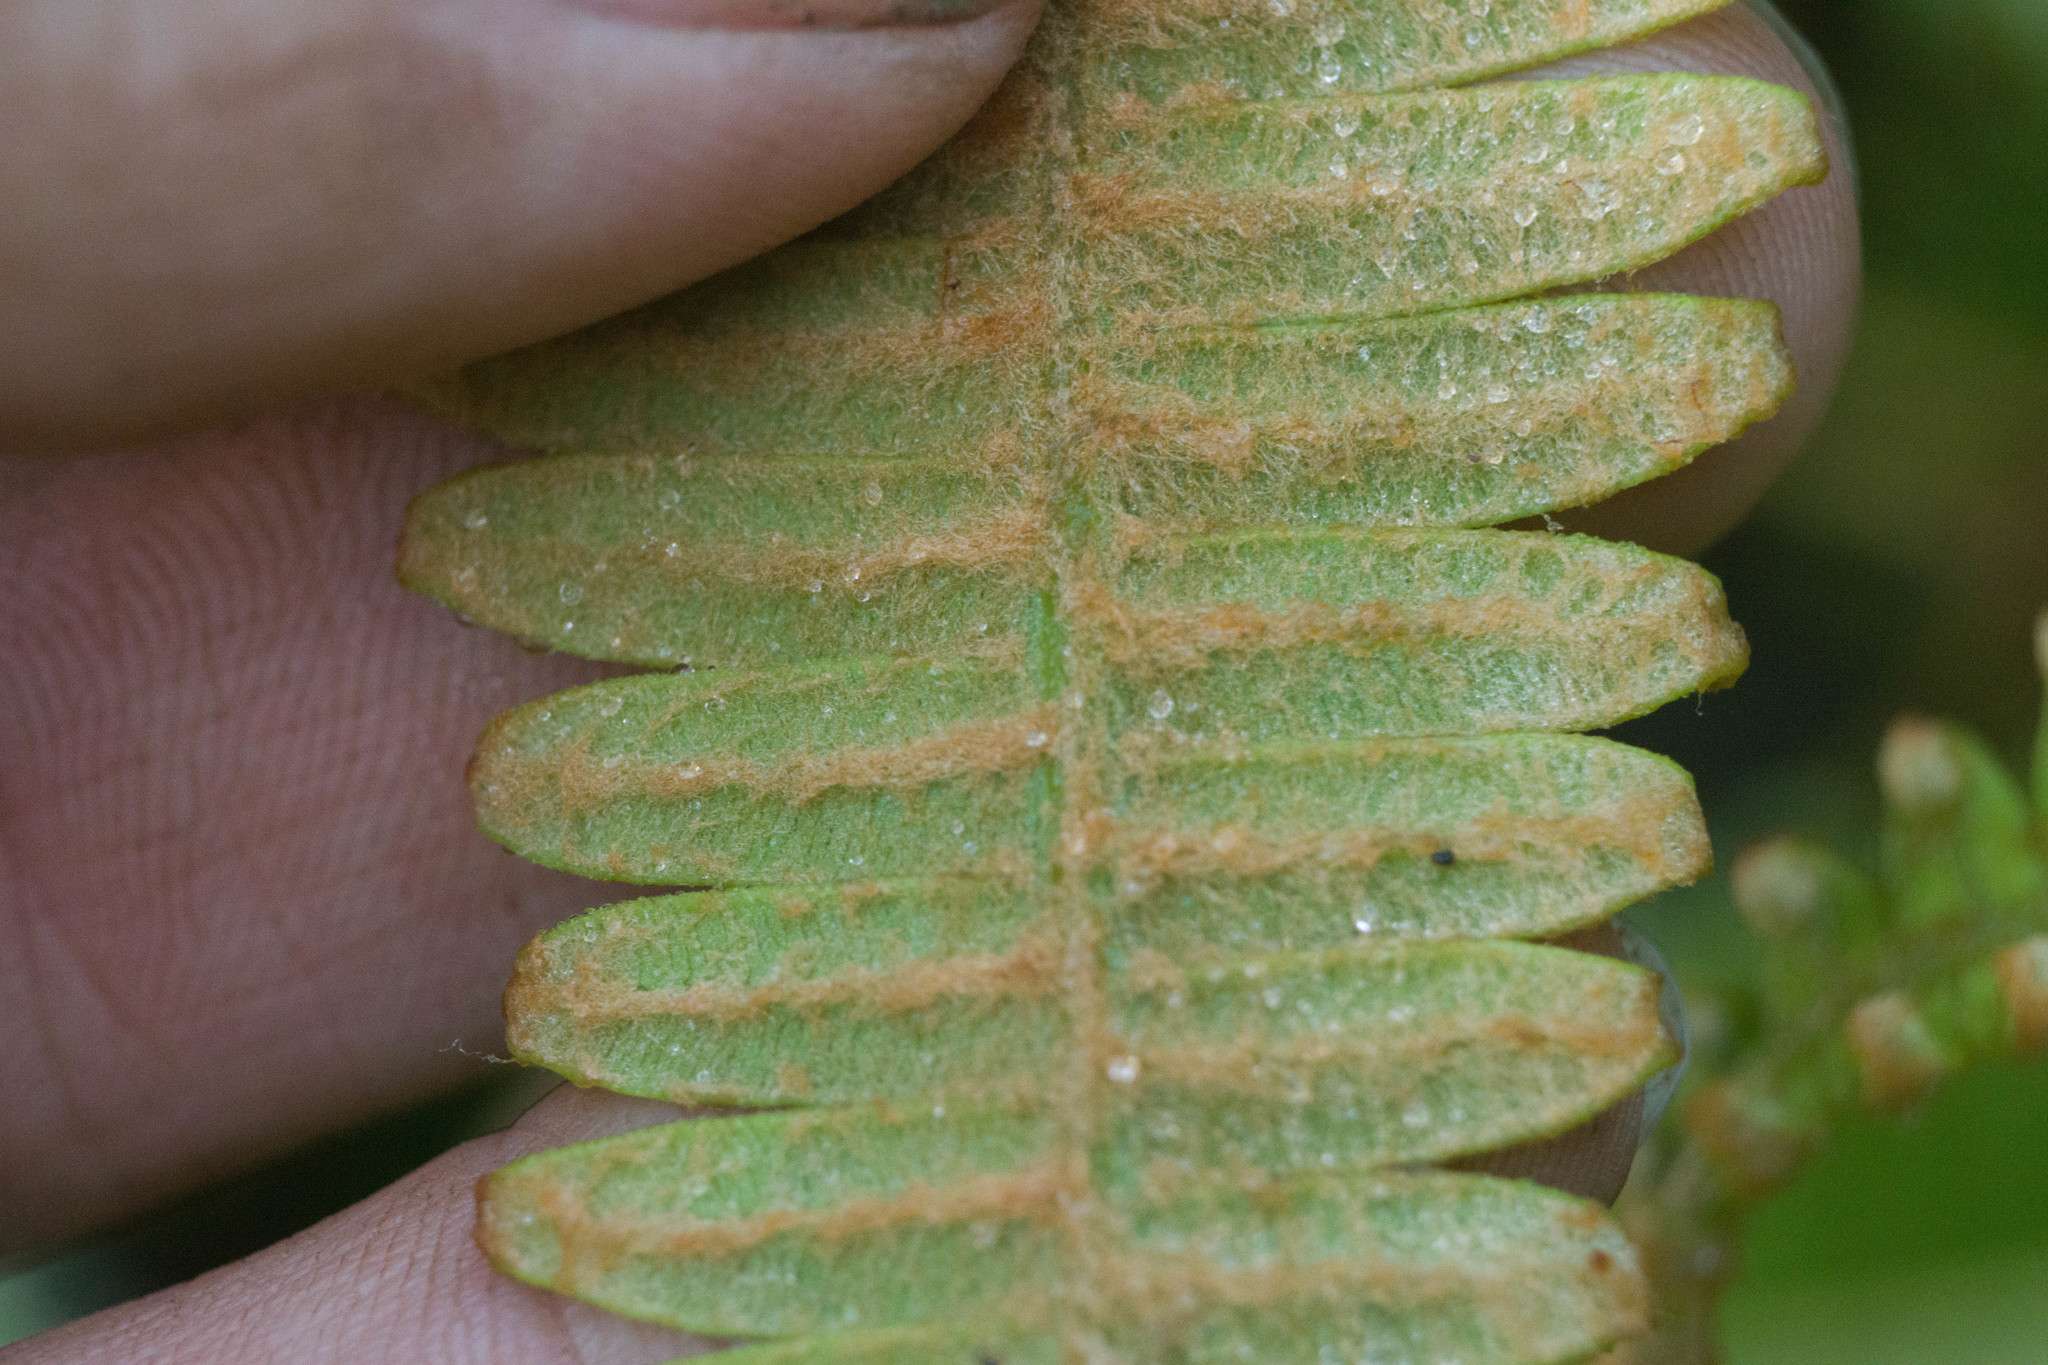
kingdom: Plantae
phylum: Tracheophyta
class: Polypodiopsida
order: Gleicheniales
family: Gleicheniaceae
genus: Dicranopteris
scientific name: Dicranopteris linearis
